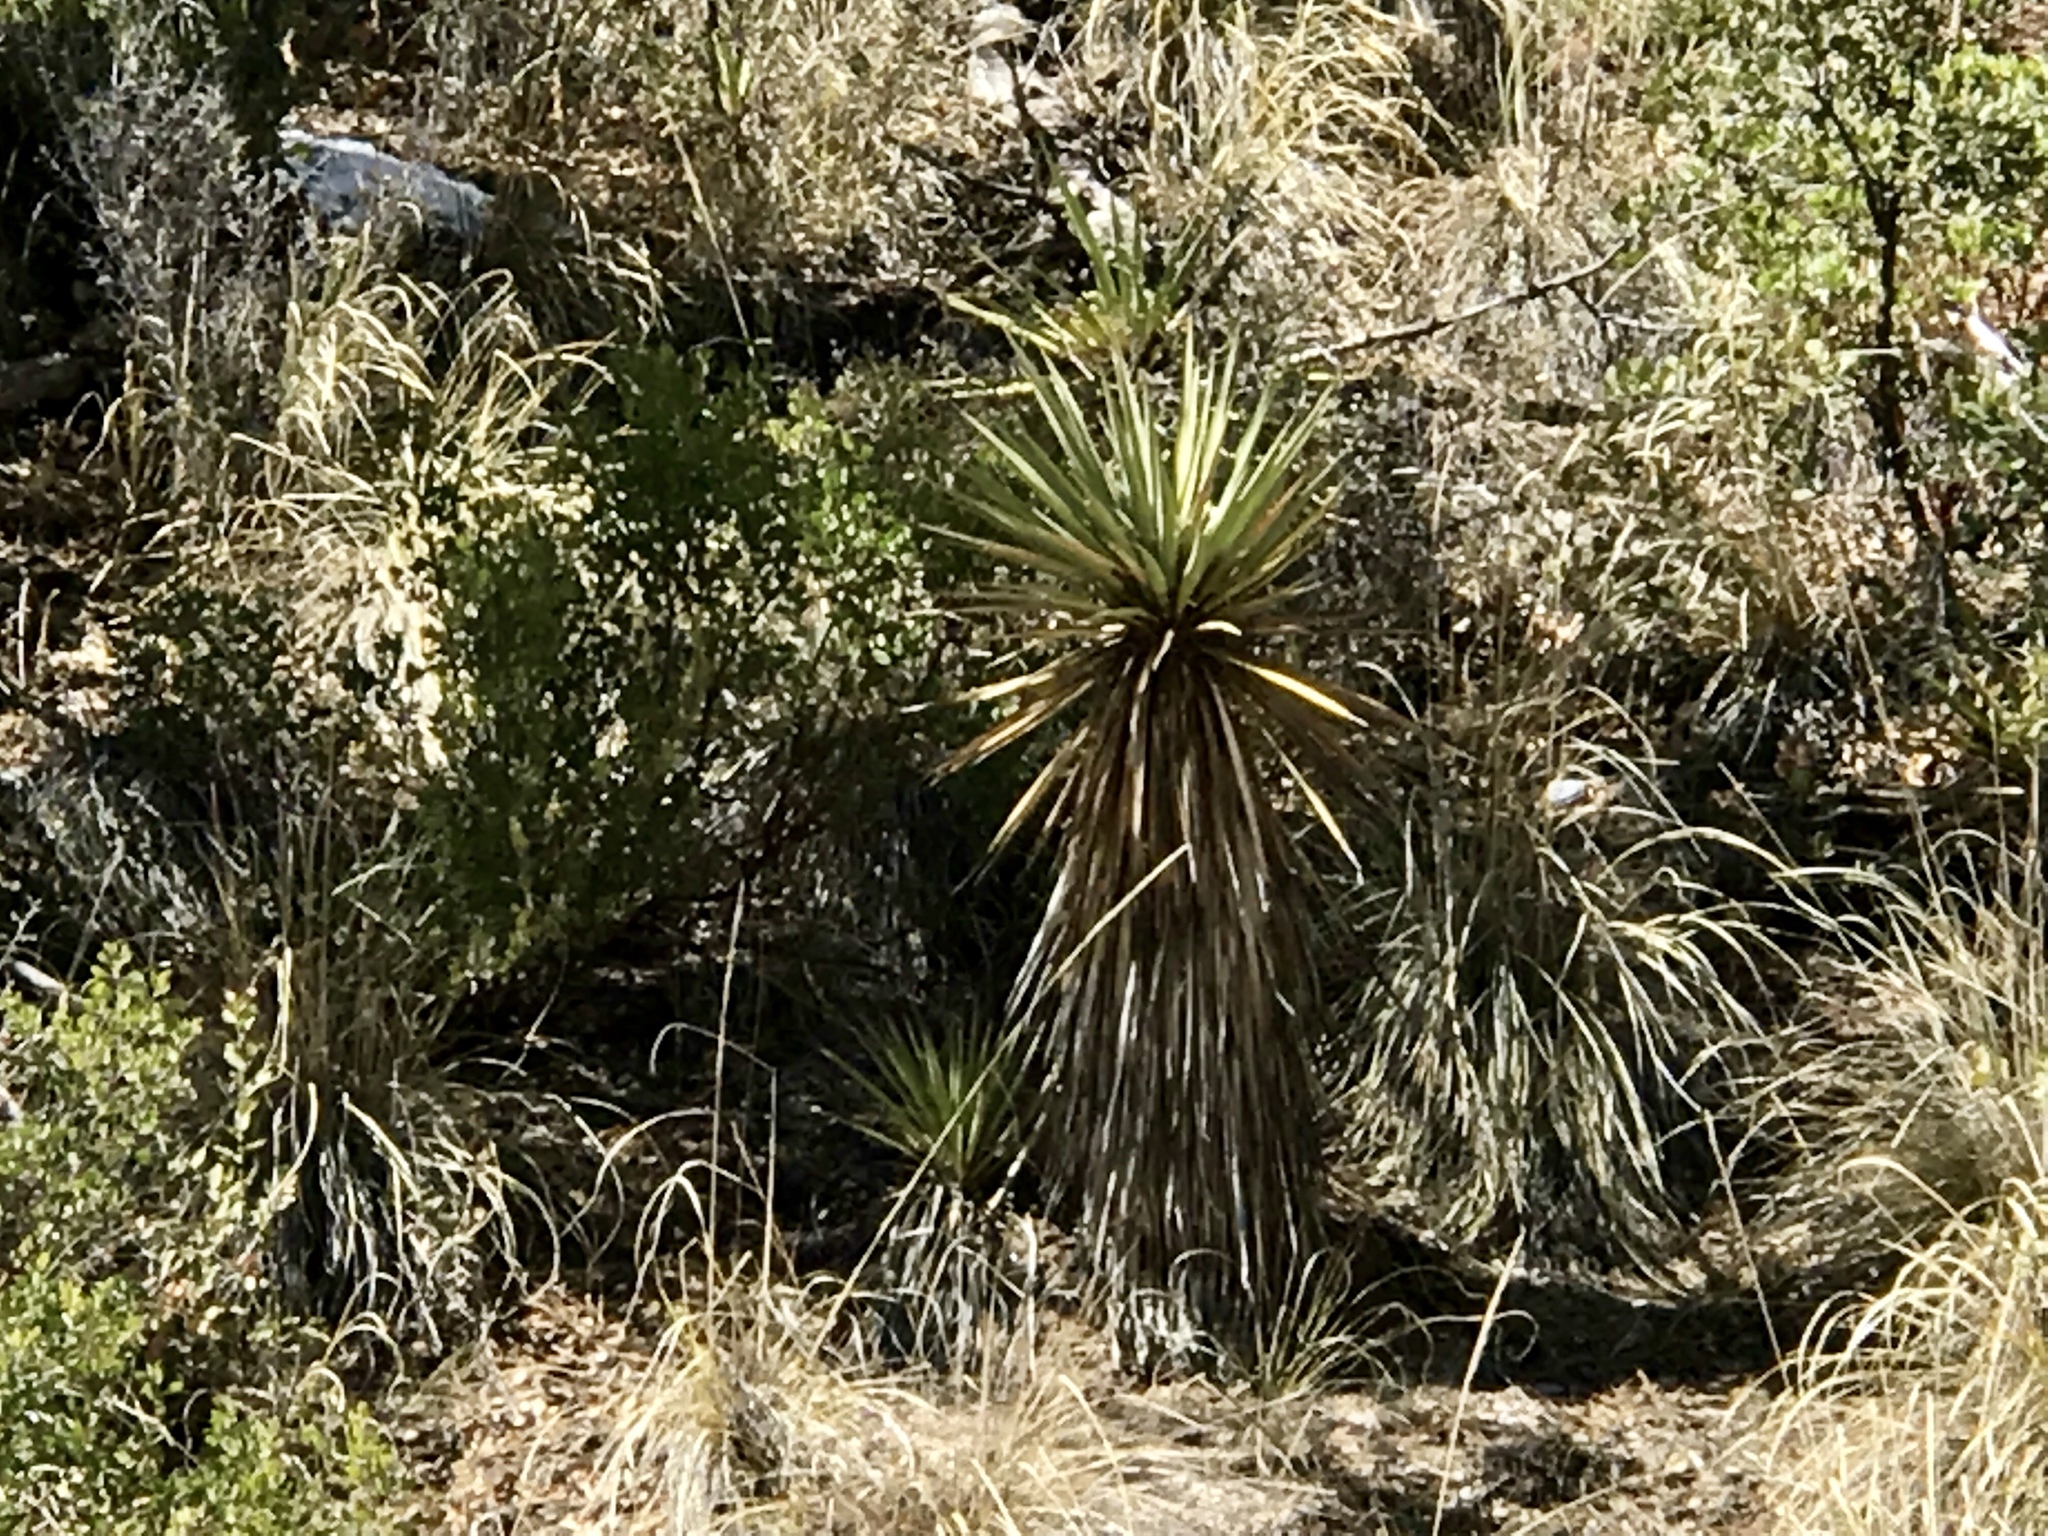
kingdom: Plantae
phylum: Tracheophyta
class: Liliopsida
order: Asparagales
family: Asparagaceae
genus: Yucca
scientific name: Yucca madrensis
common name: Hoary yucca
